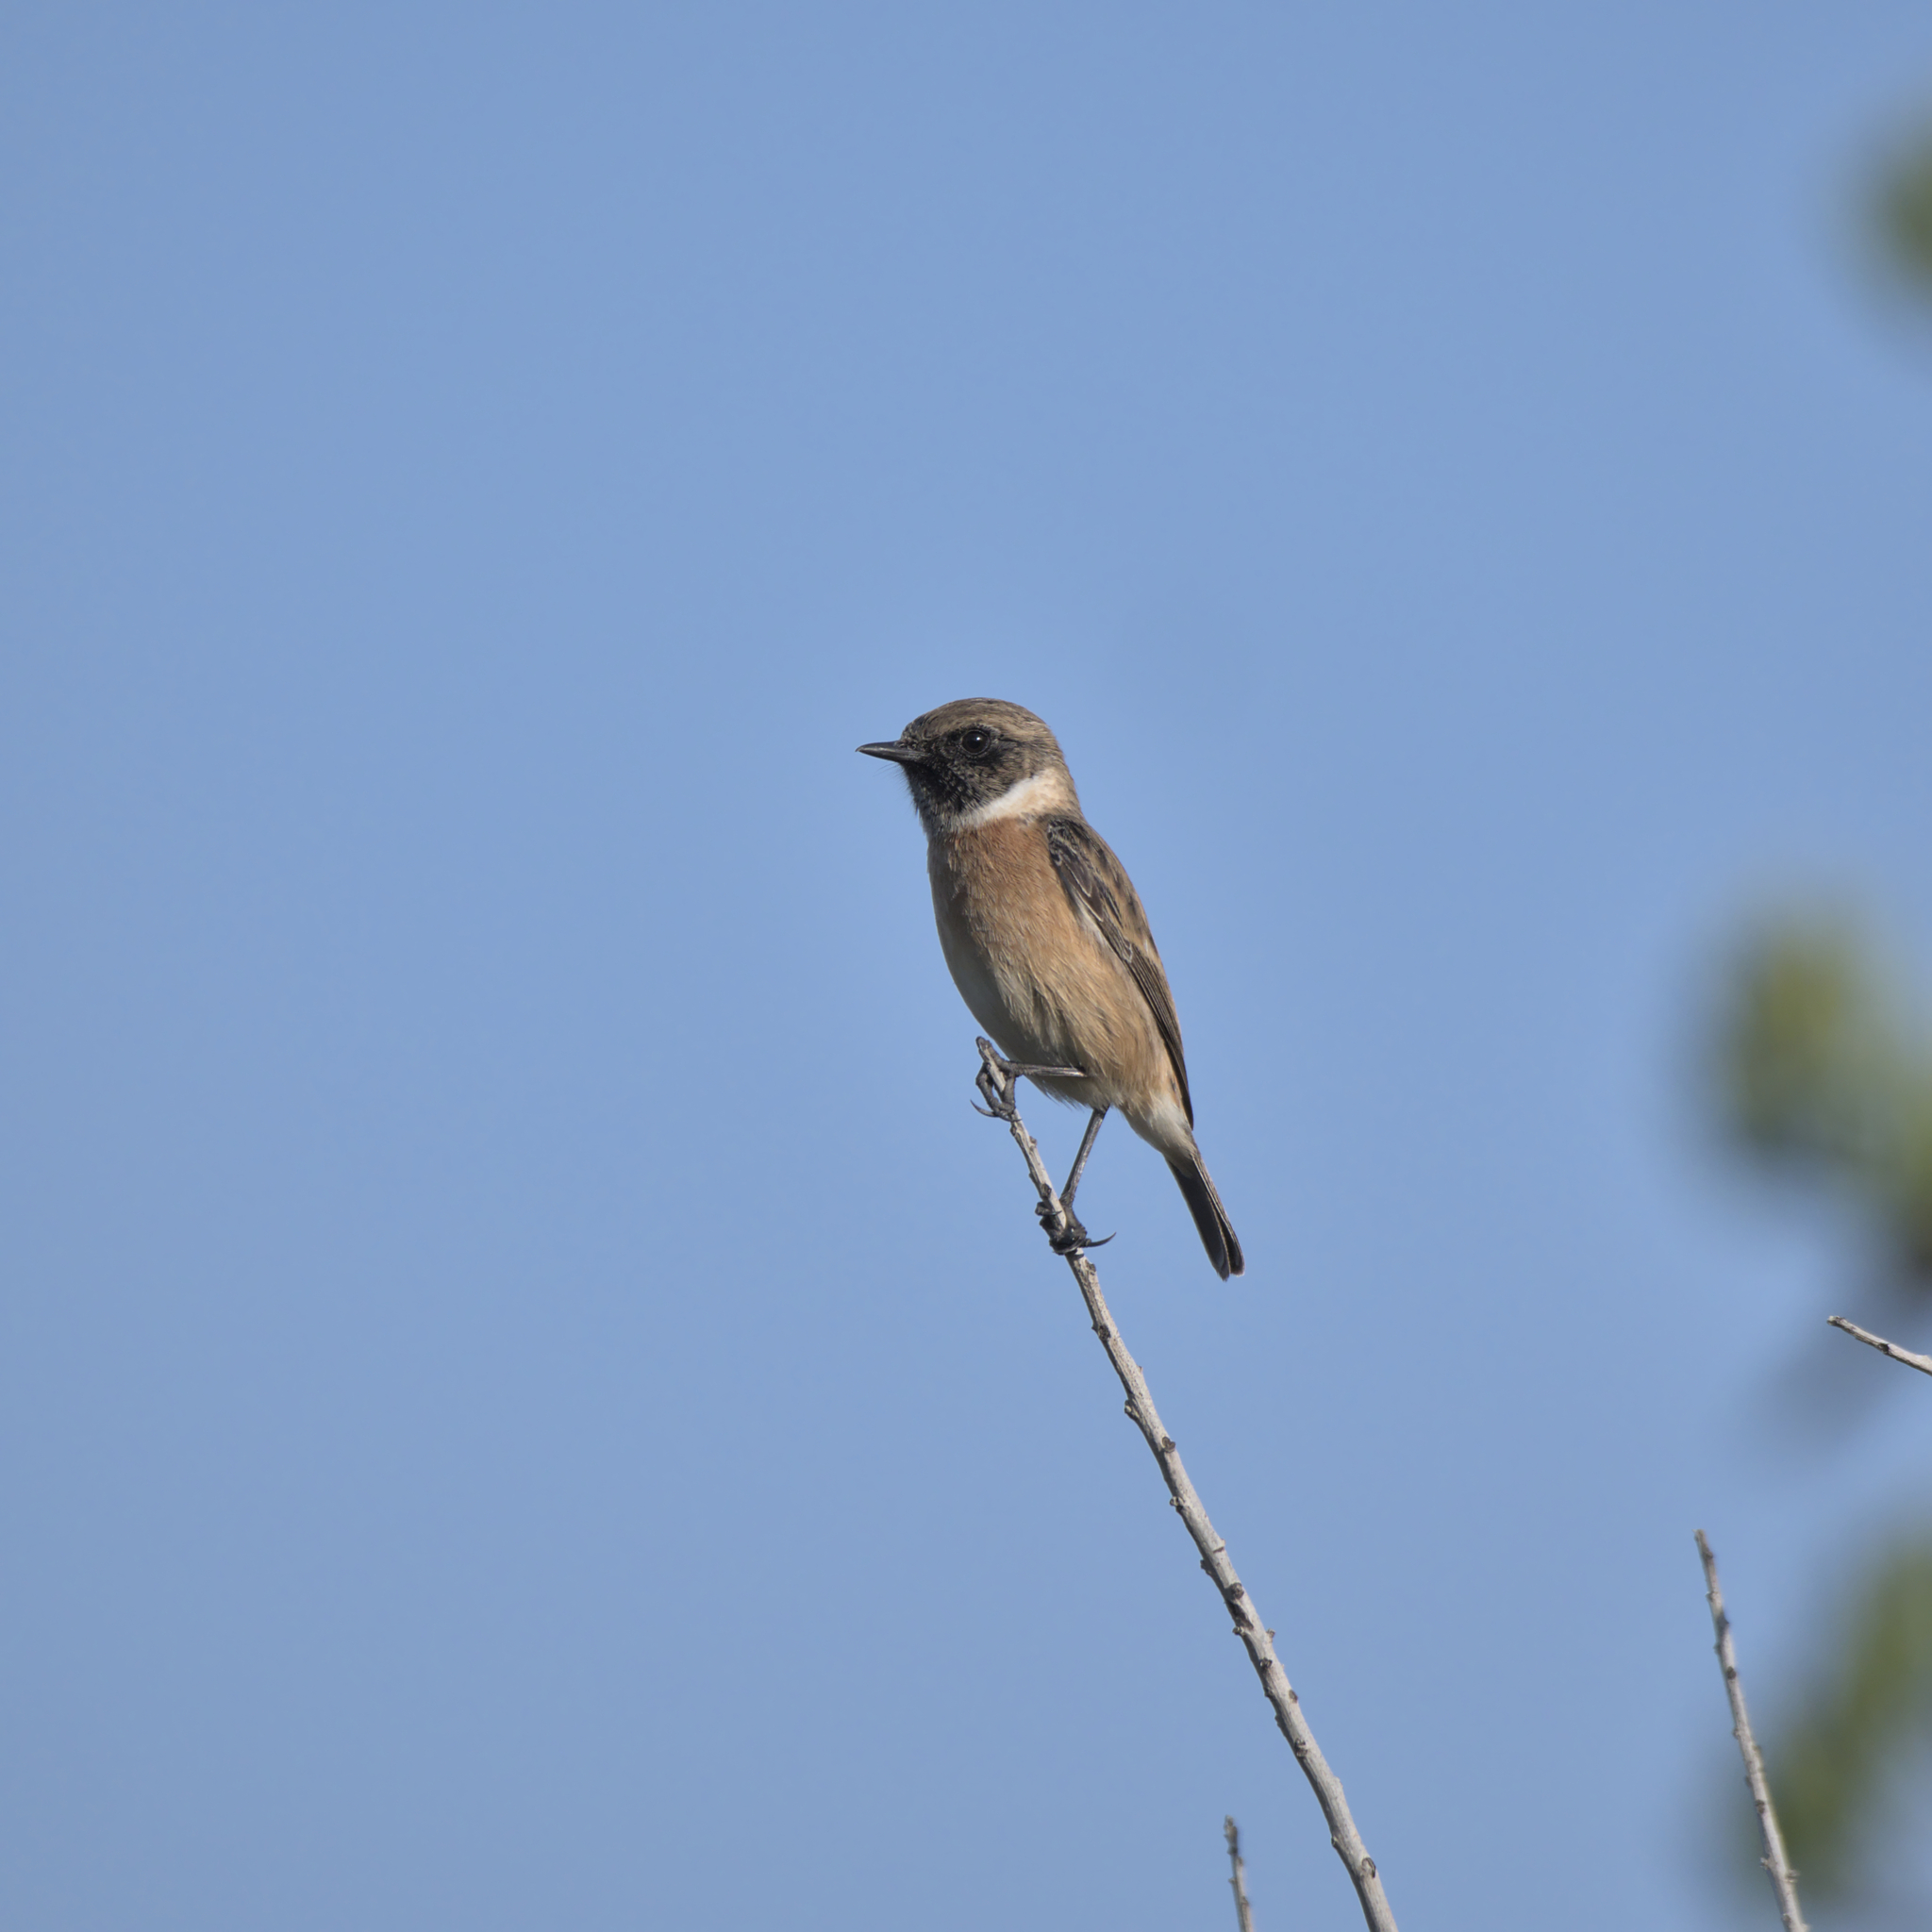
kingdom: Animalia
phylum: Chordata
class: Aves
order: Passeriformes
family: Muscicapidae
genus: Saxicola
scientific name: Saxicola rubicola
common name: European stonechat
